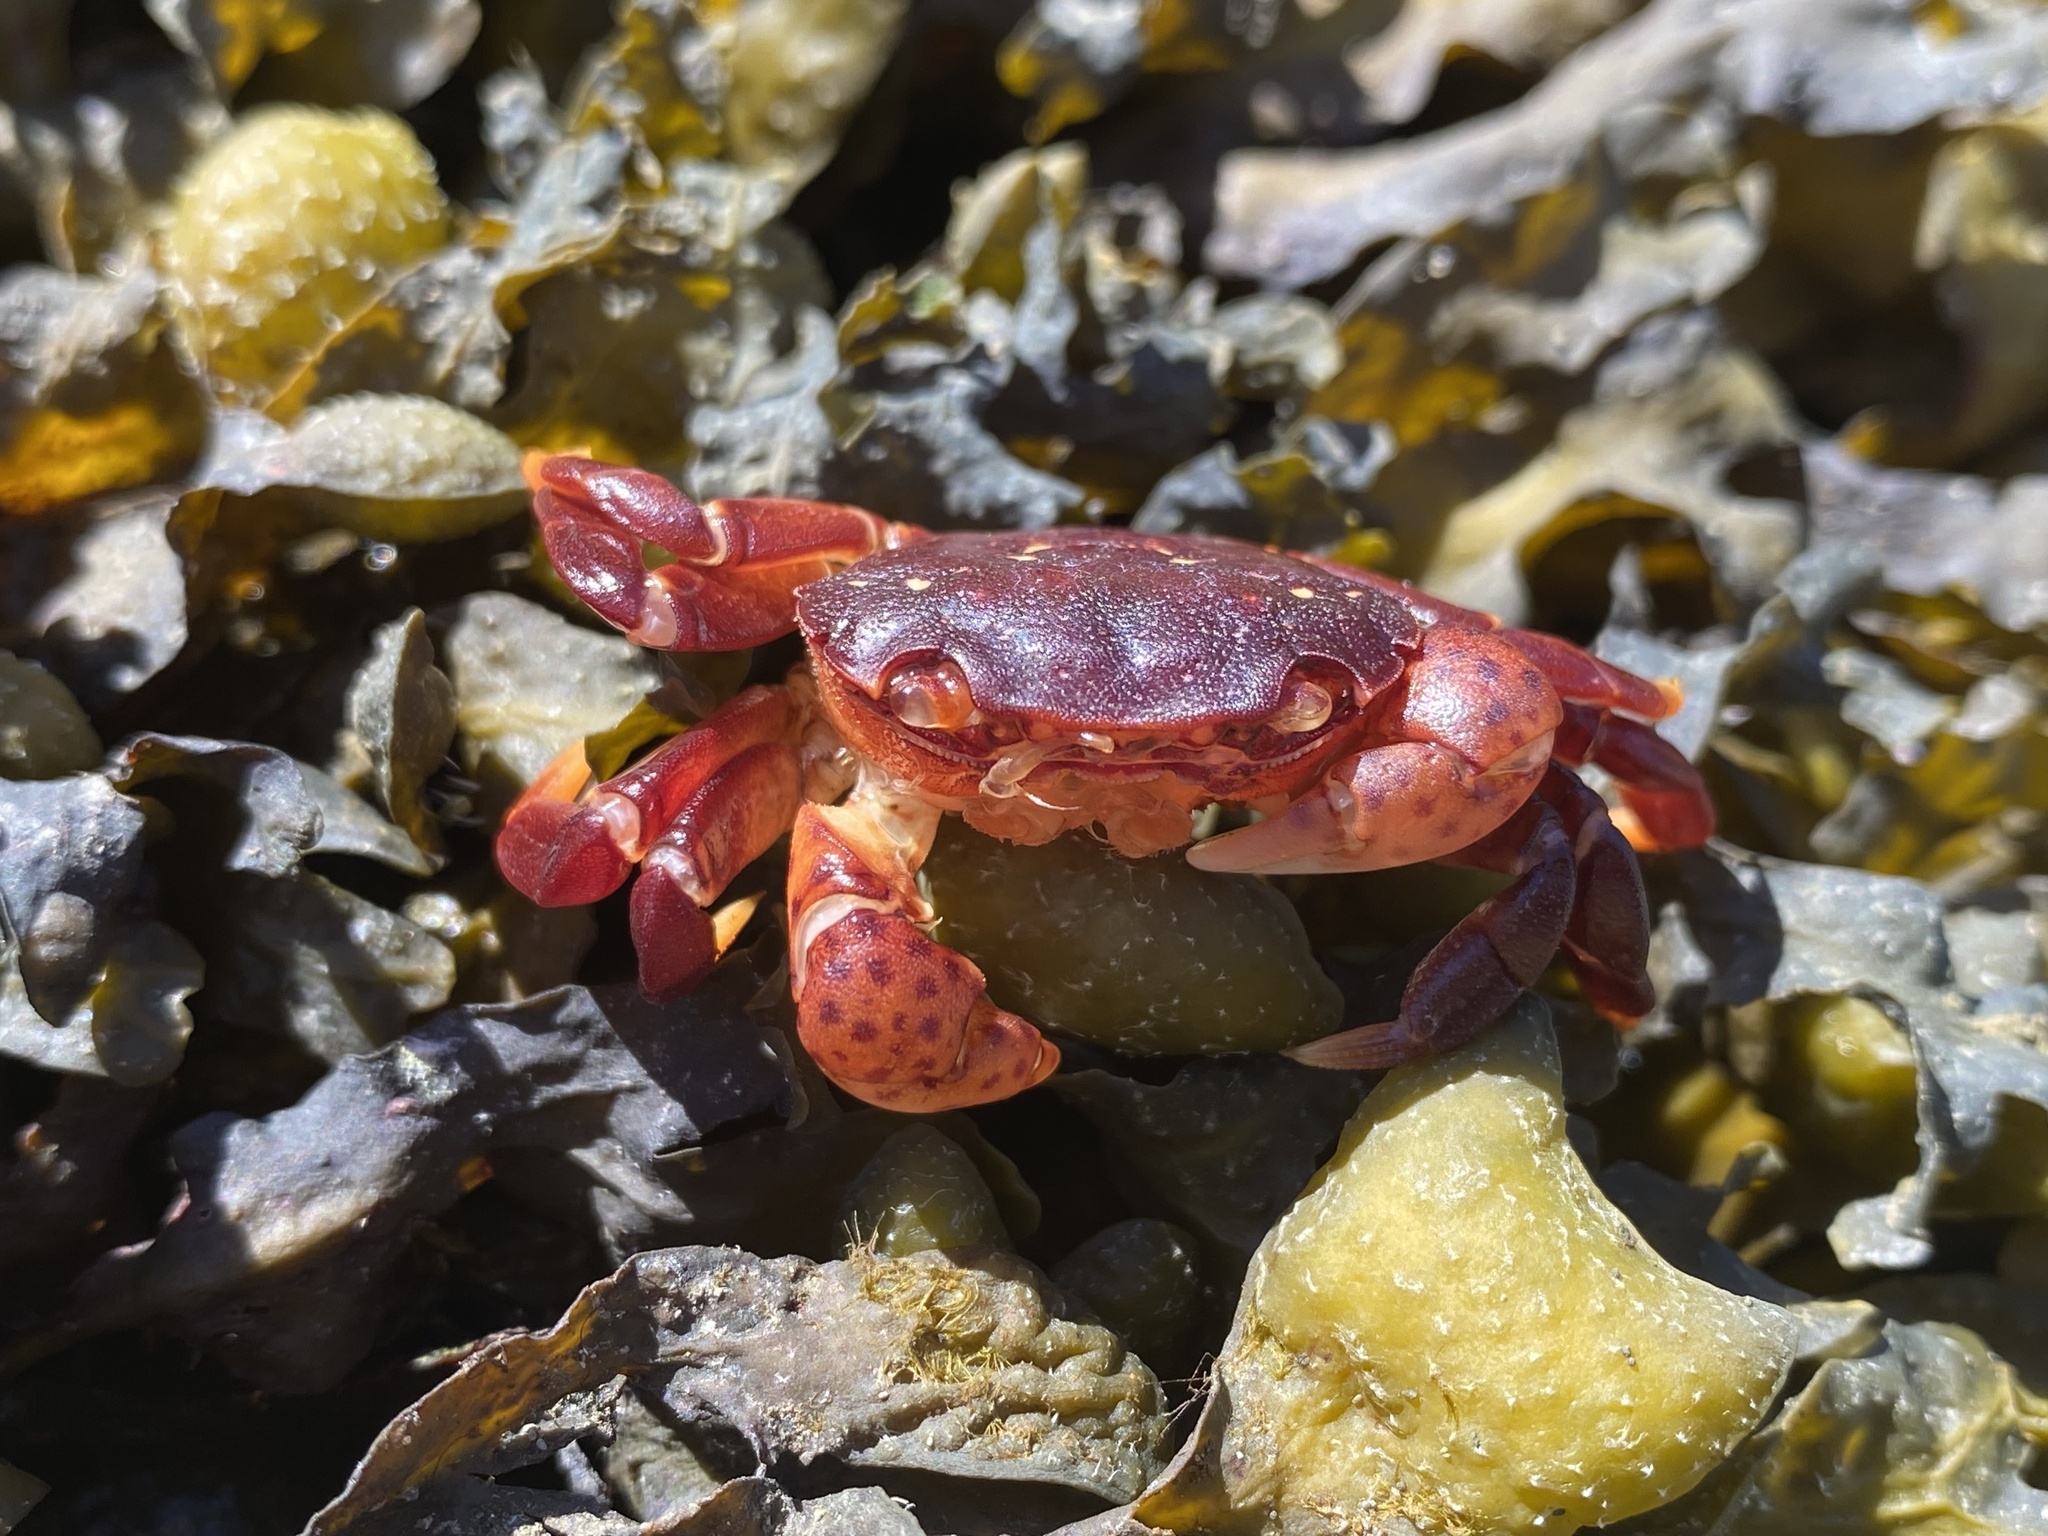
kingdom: Animalia
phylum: Arthropoda
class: Malacostraca
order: Decapoda
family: Varunidae
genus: Hemigrapsus
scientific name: Hemigrapsus nudus
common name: Purple shore crab
